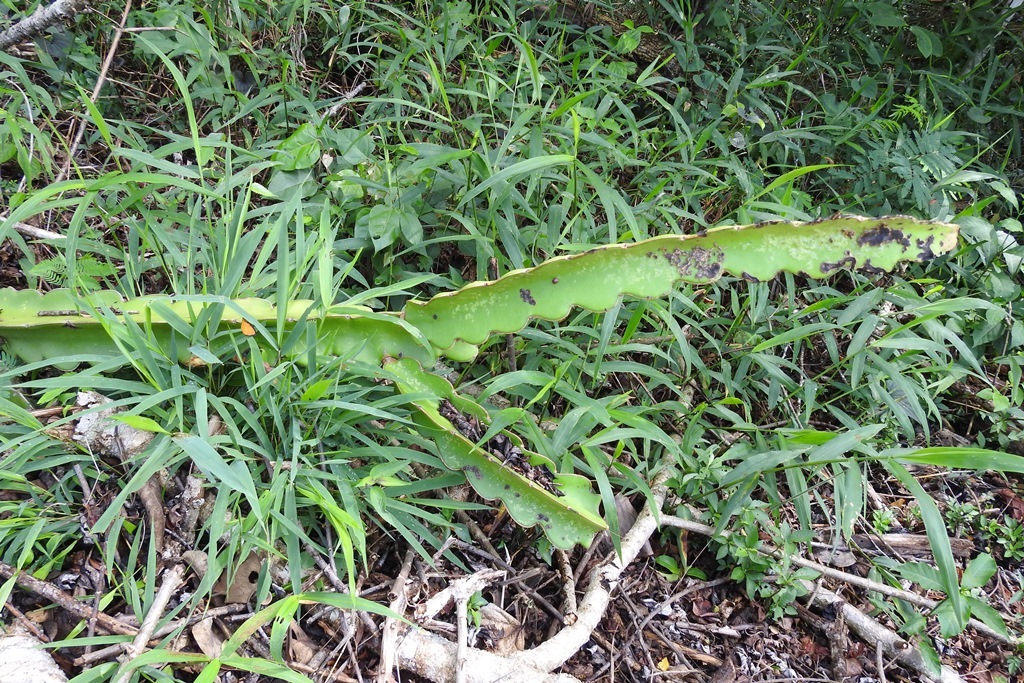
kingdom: Plantae
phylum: Tracheophyta
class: Magnoliopsida
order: Caryophyllales
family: Cactaceae
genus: Selenicereus
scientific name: Selenicereus undatus
